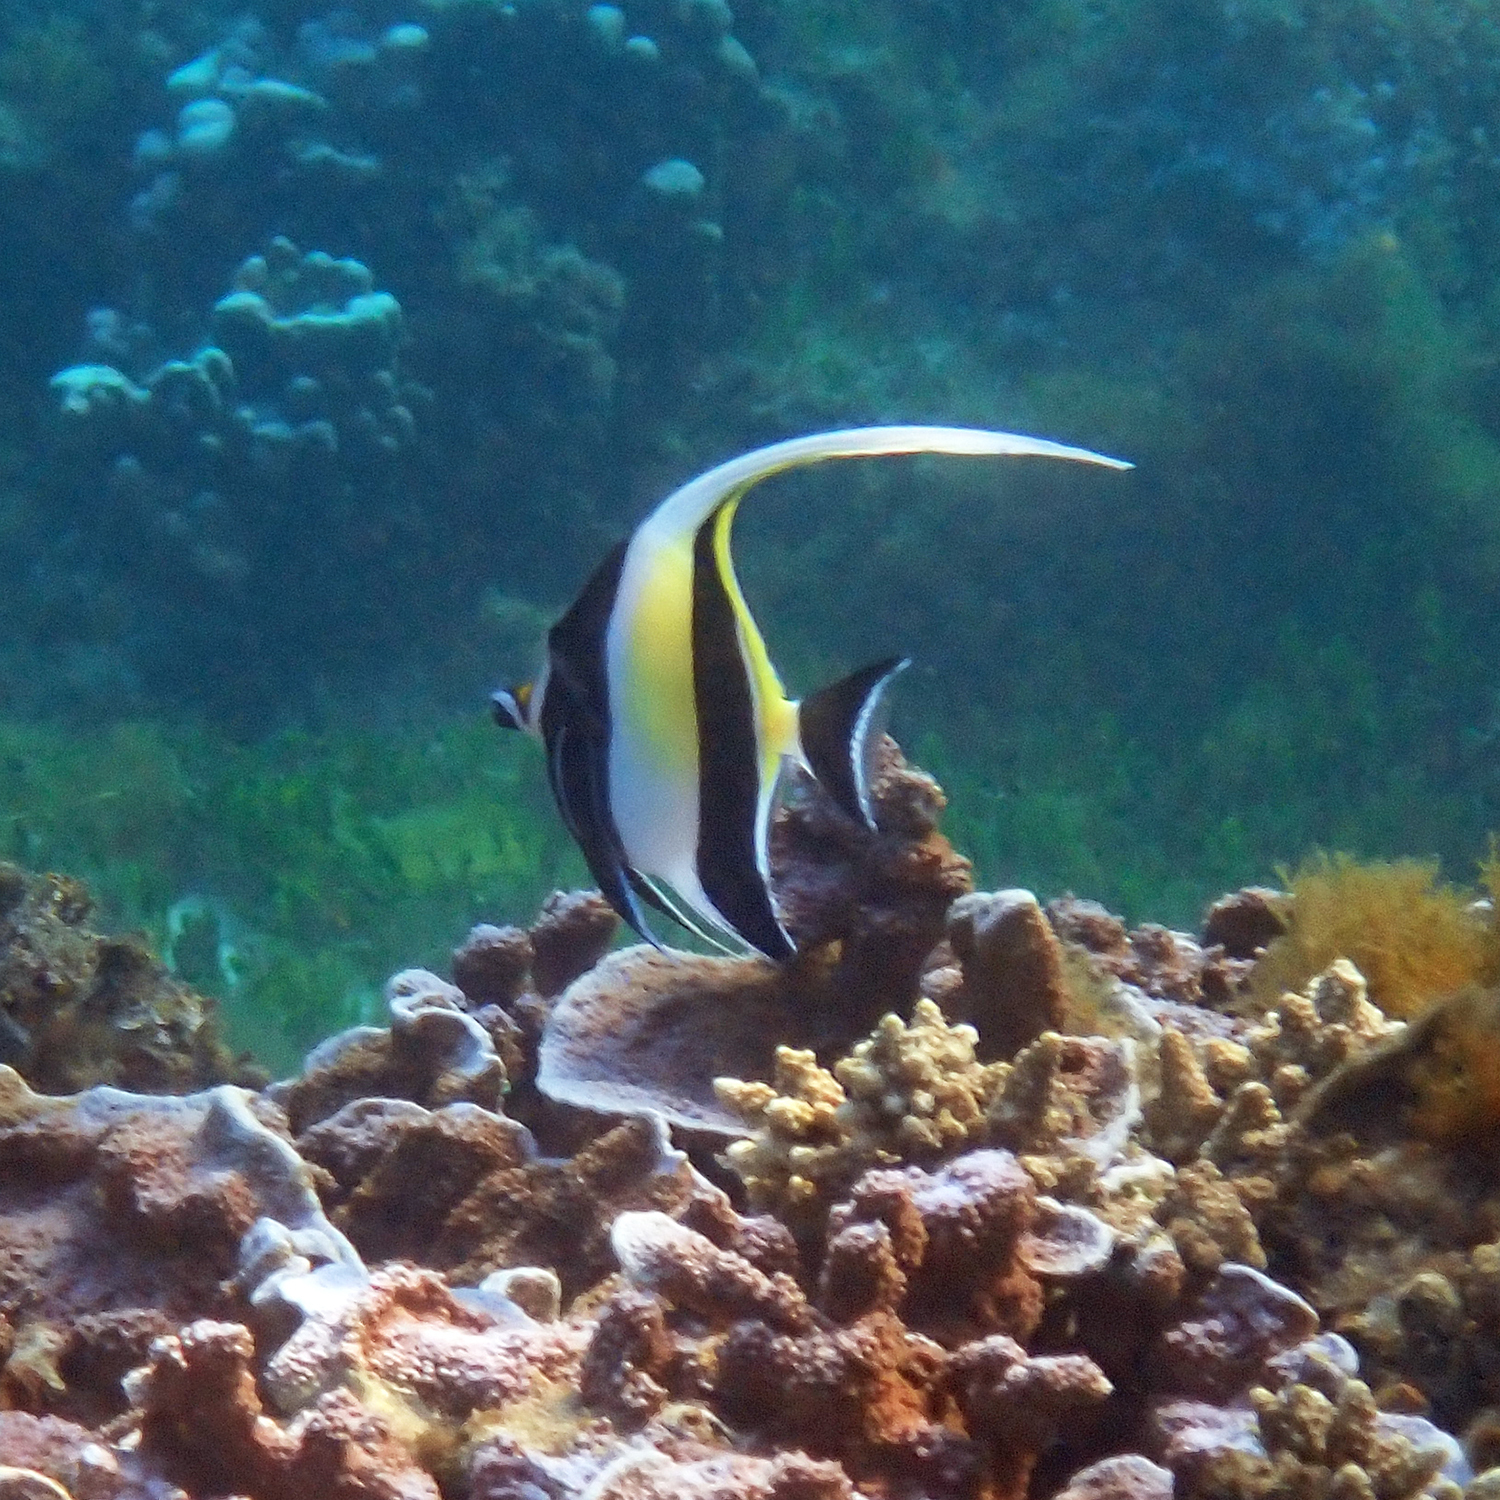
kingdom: Animalia
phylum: Chordata
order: Perciformes
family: Zanclidae
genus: Zanclus
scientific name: Zanclus cornutus
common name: Moorish idol
